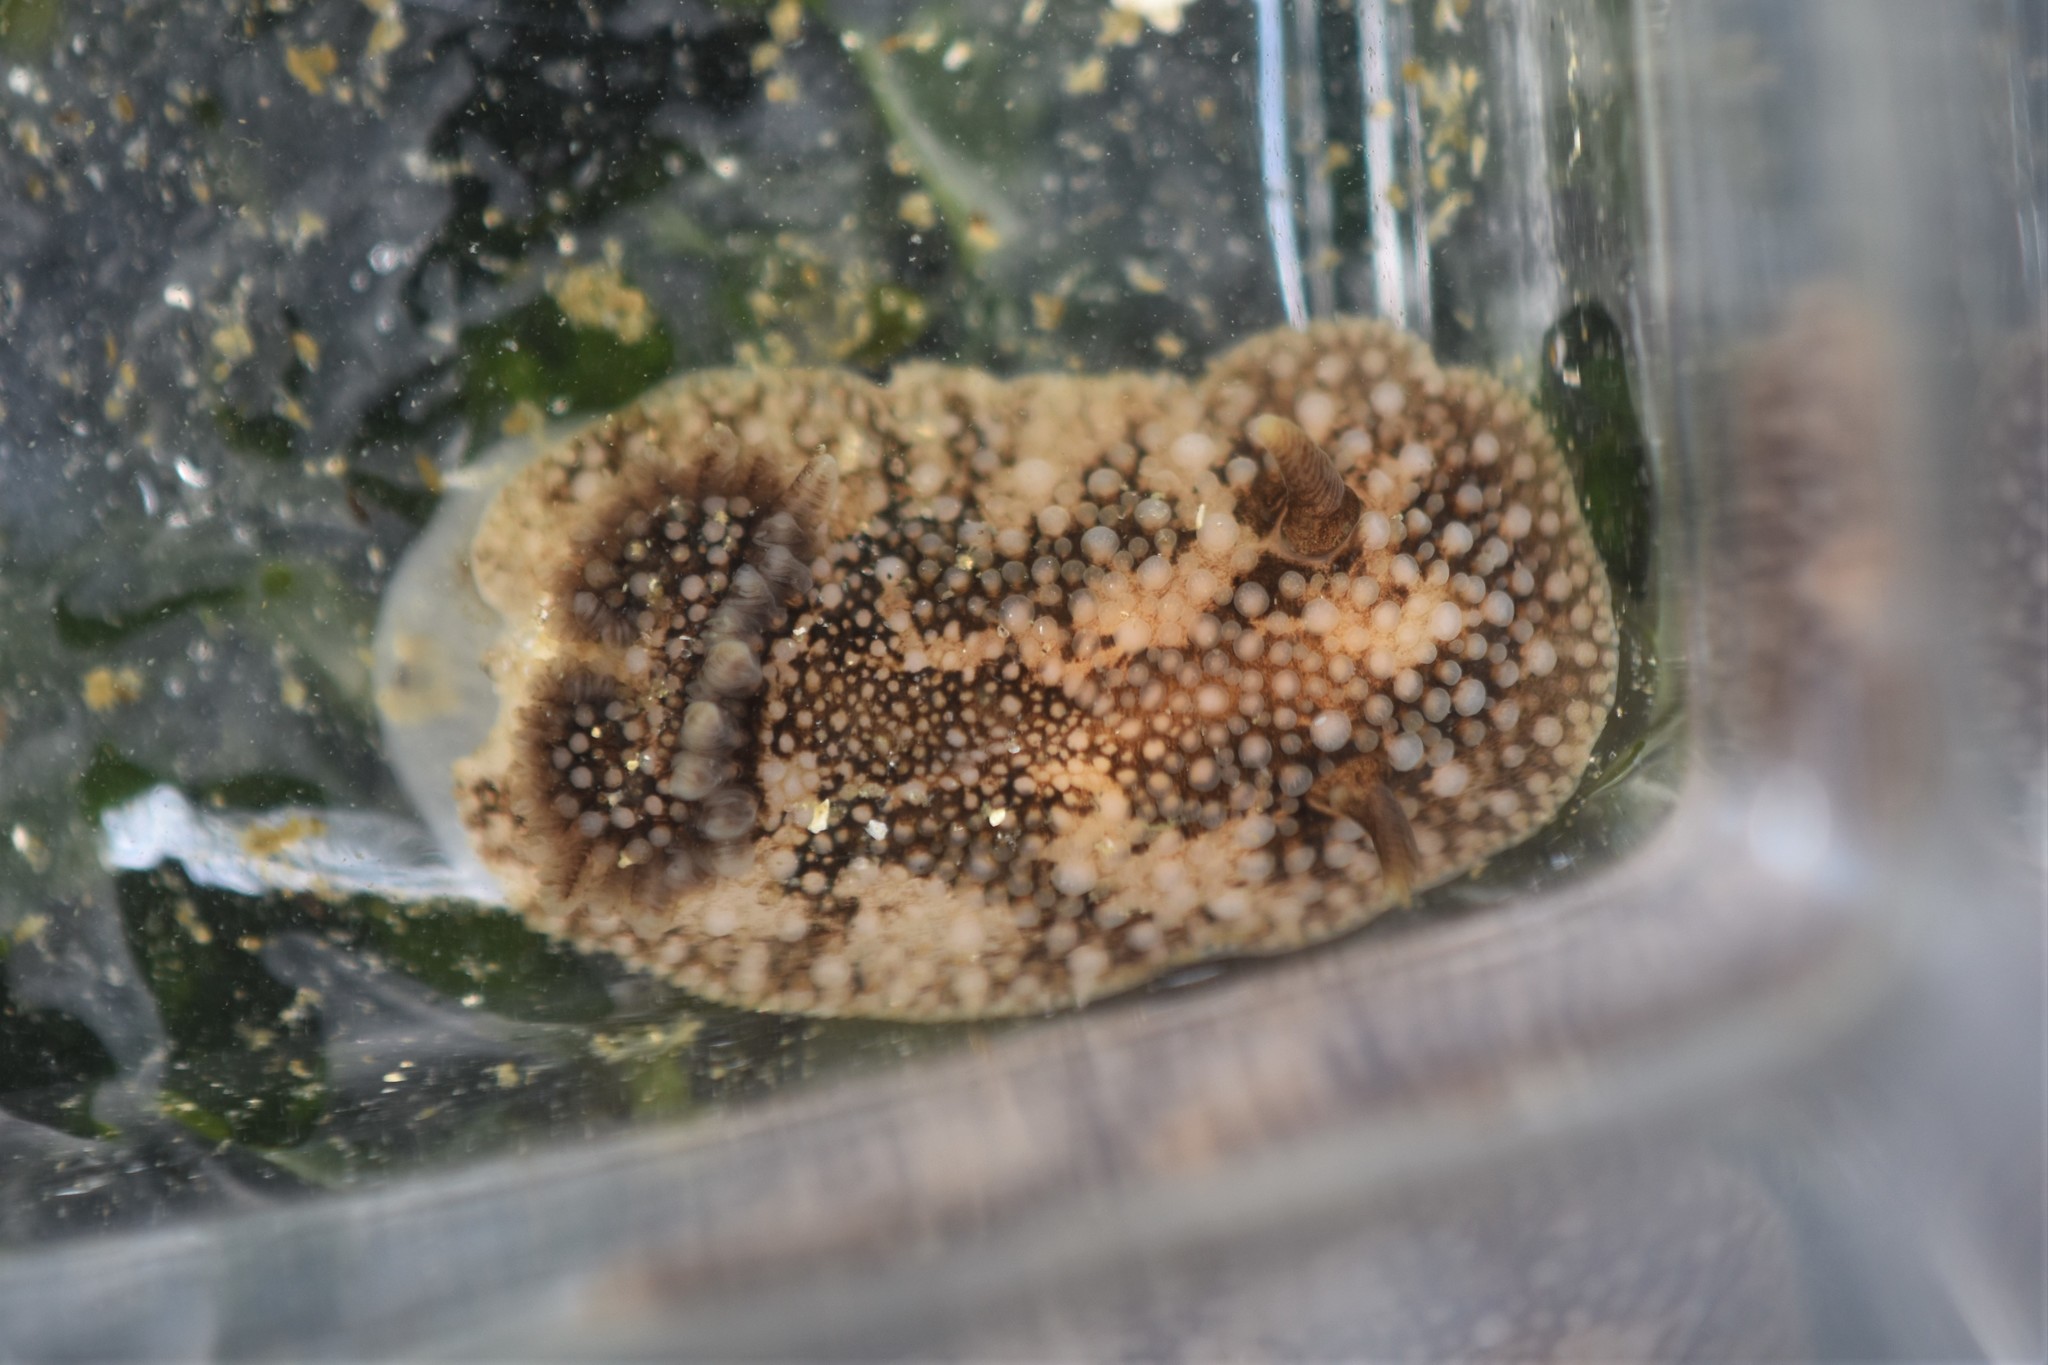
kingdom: Animalia
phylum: Mollusca
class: Gastropoda
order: Nudibranchia
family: Onchidorididae
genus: Onchidoris
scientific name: Onchidoris bilamellata
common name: Barnacle-eating onchidoris
